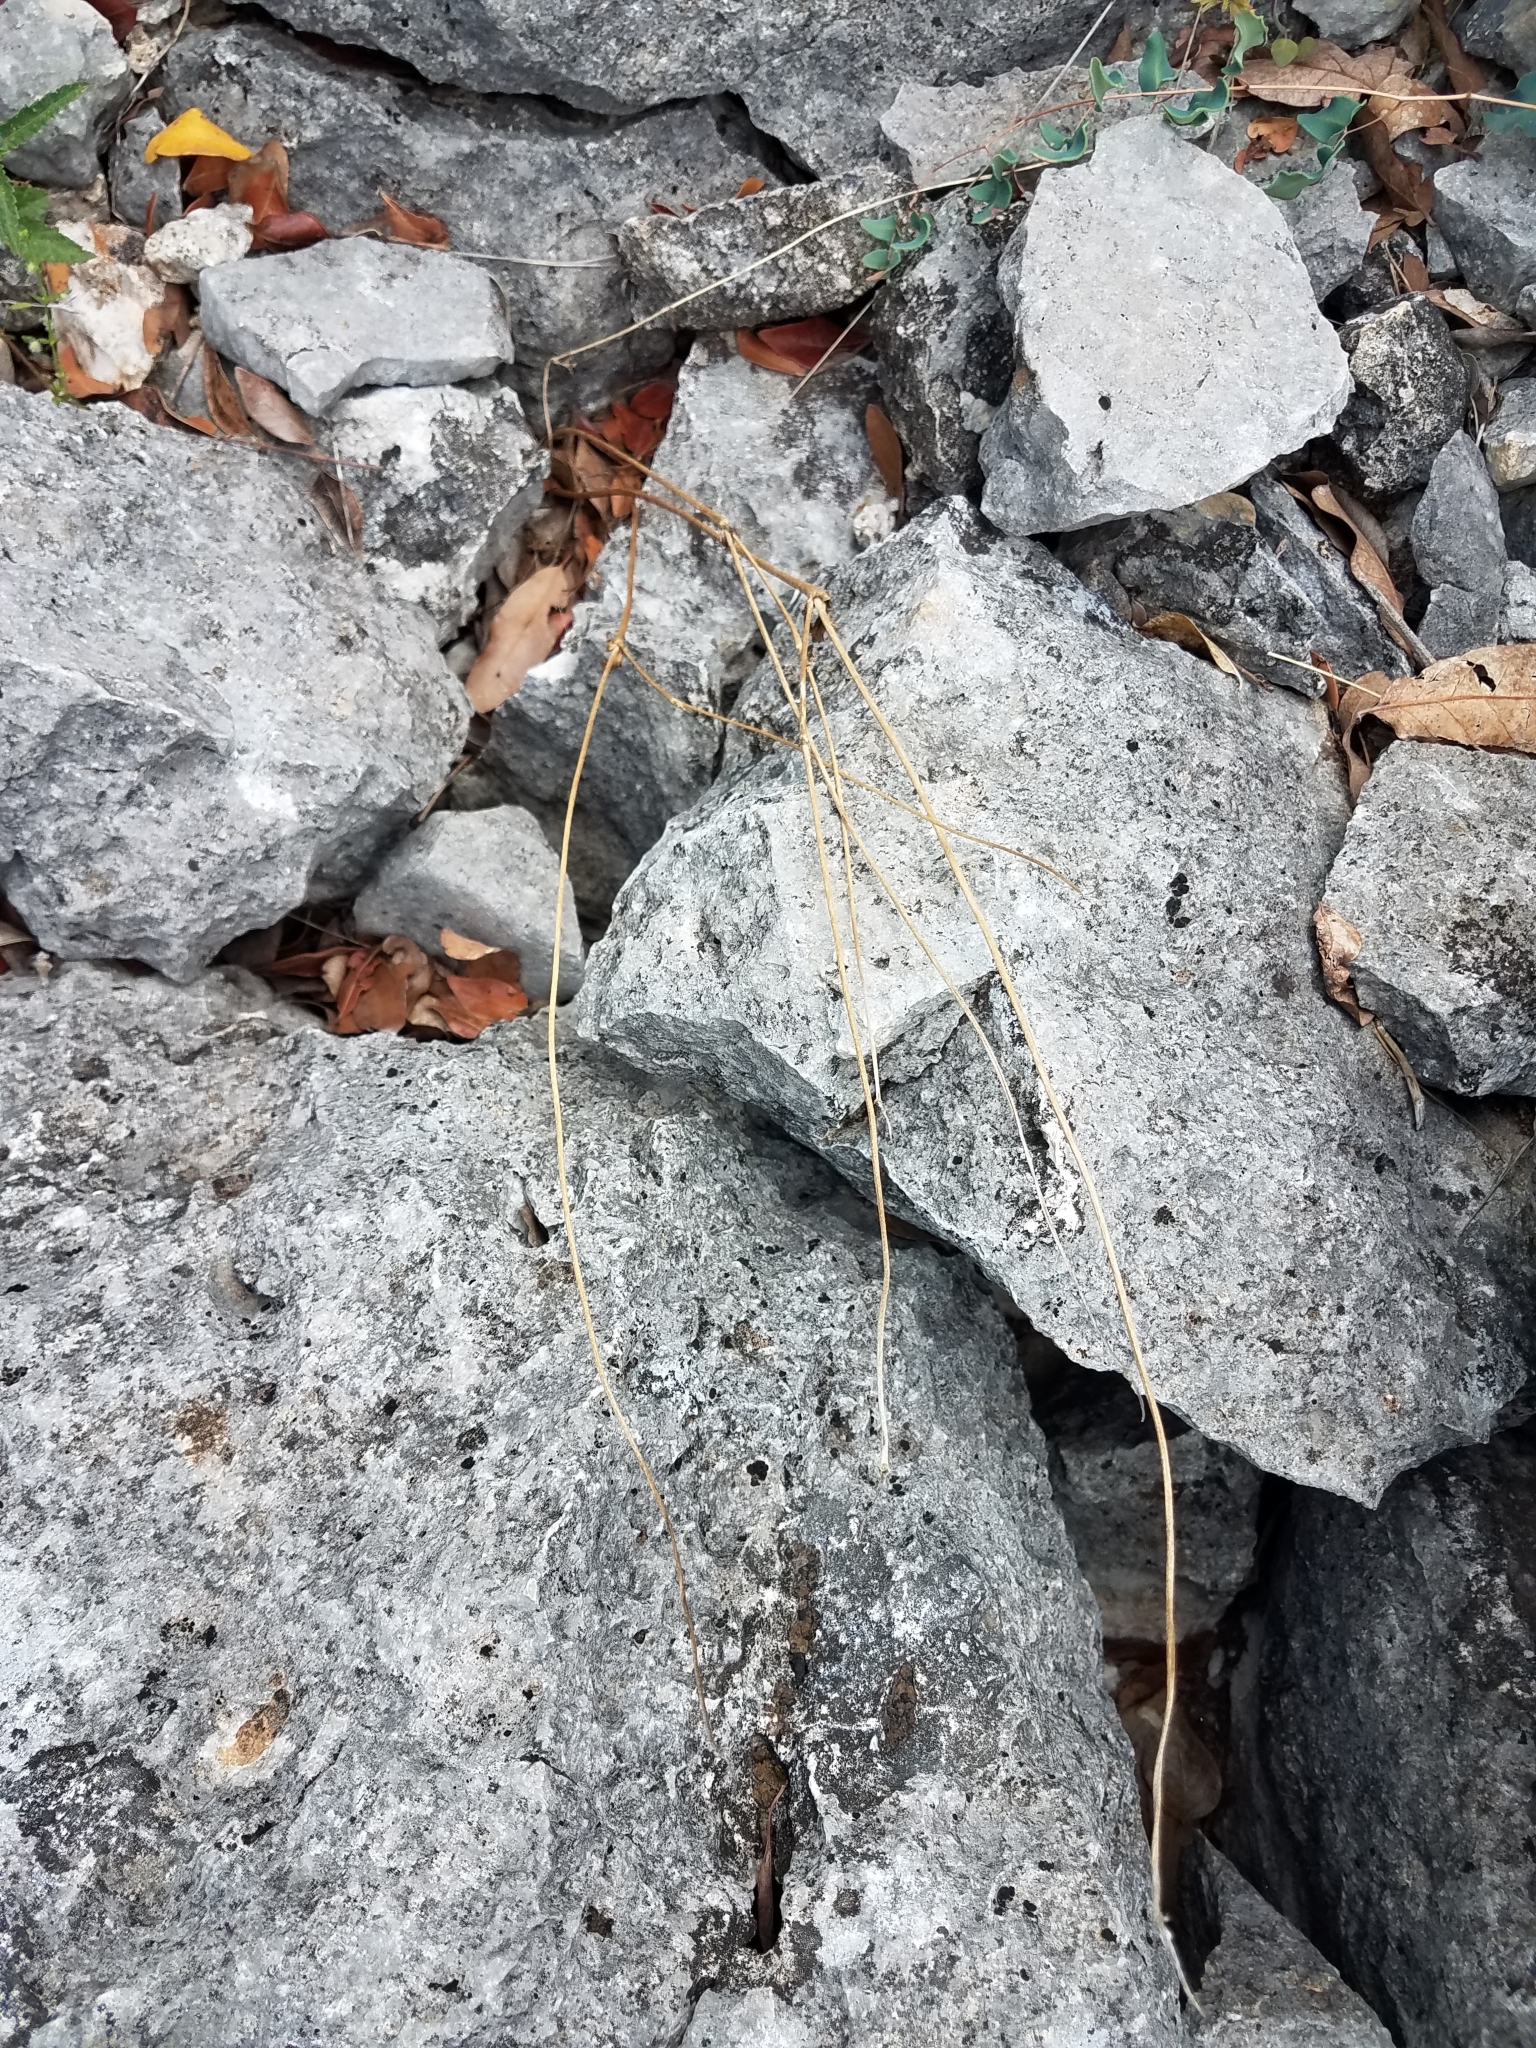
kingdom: Plantae
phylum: Tracheophyta
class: Magnoliopsida
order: Ranunculales
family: Ranunculaceae
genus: Anemone
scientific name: Anemone edwardsiana
